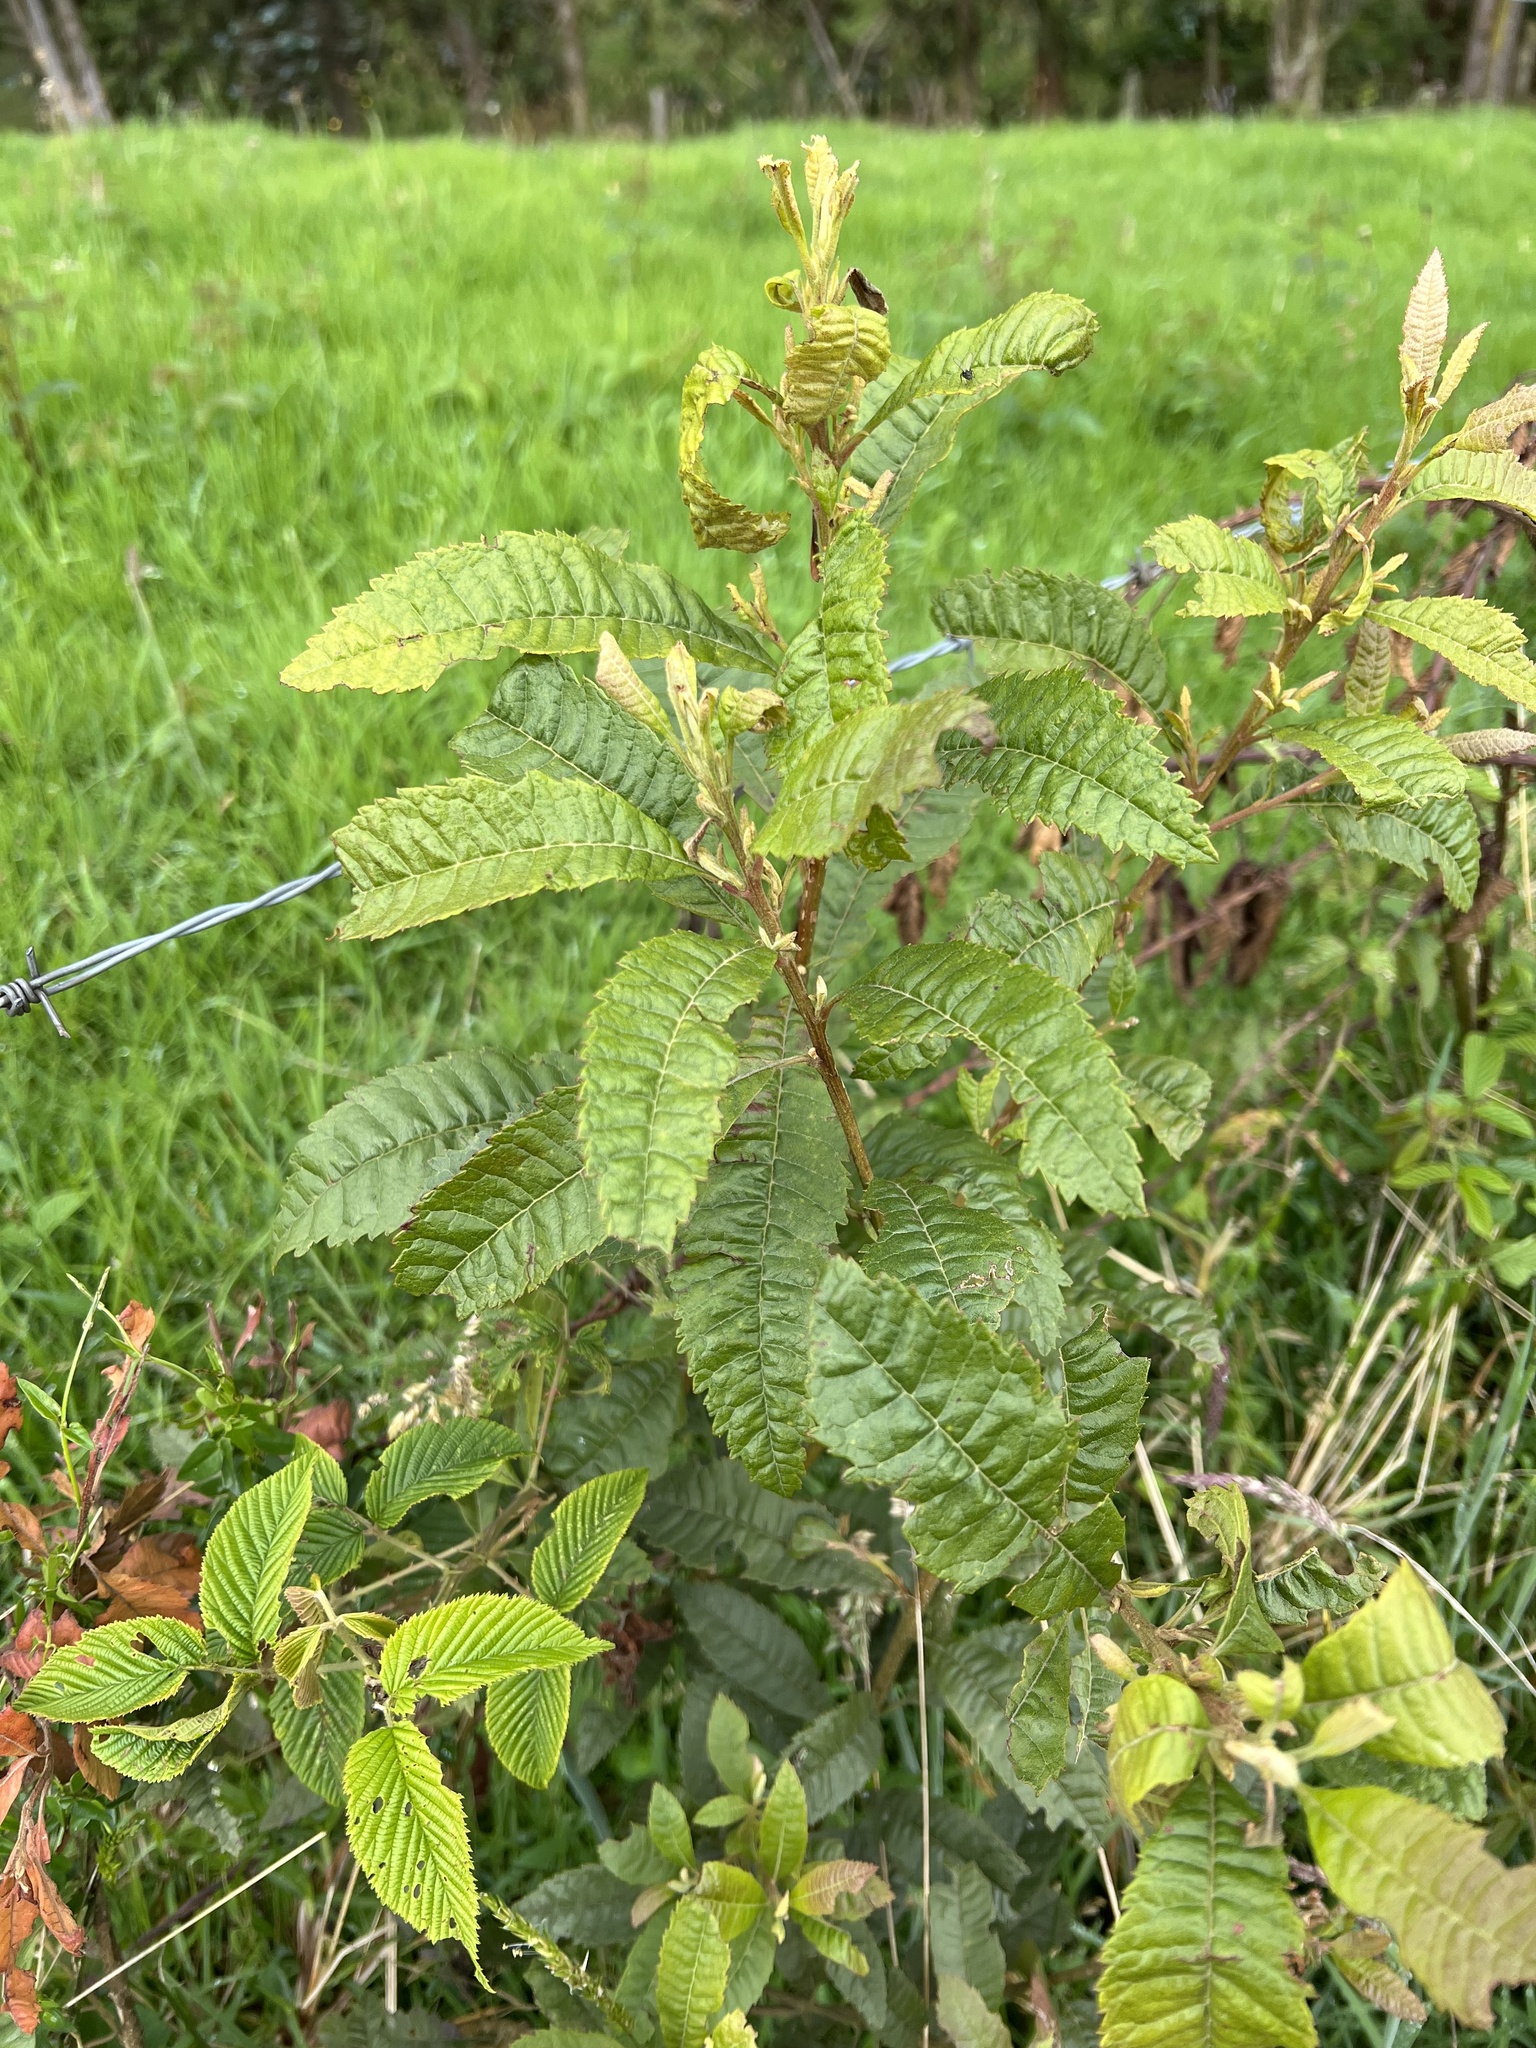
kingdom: Plantae
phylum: Tracheophyta
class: Magnoliopsida
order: Fagales
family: Myricaceae
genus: Morella
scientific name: Morella pubescens
